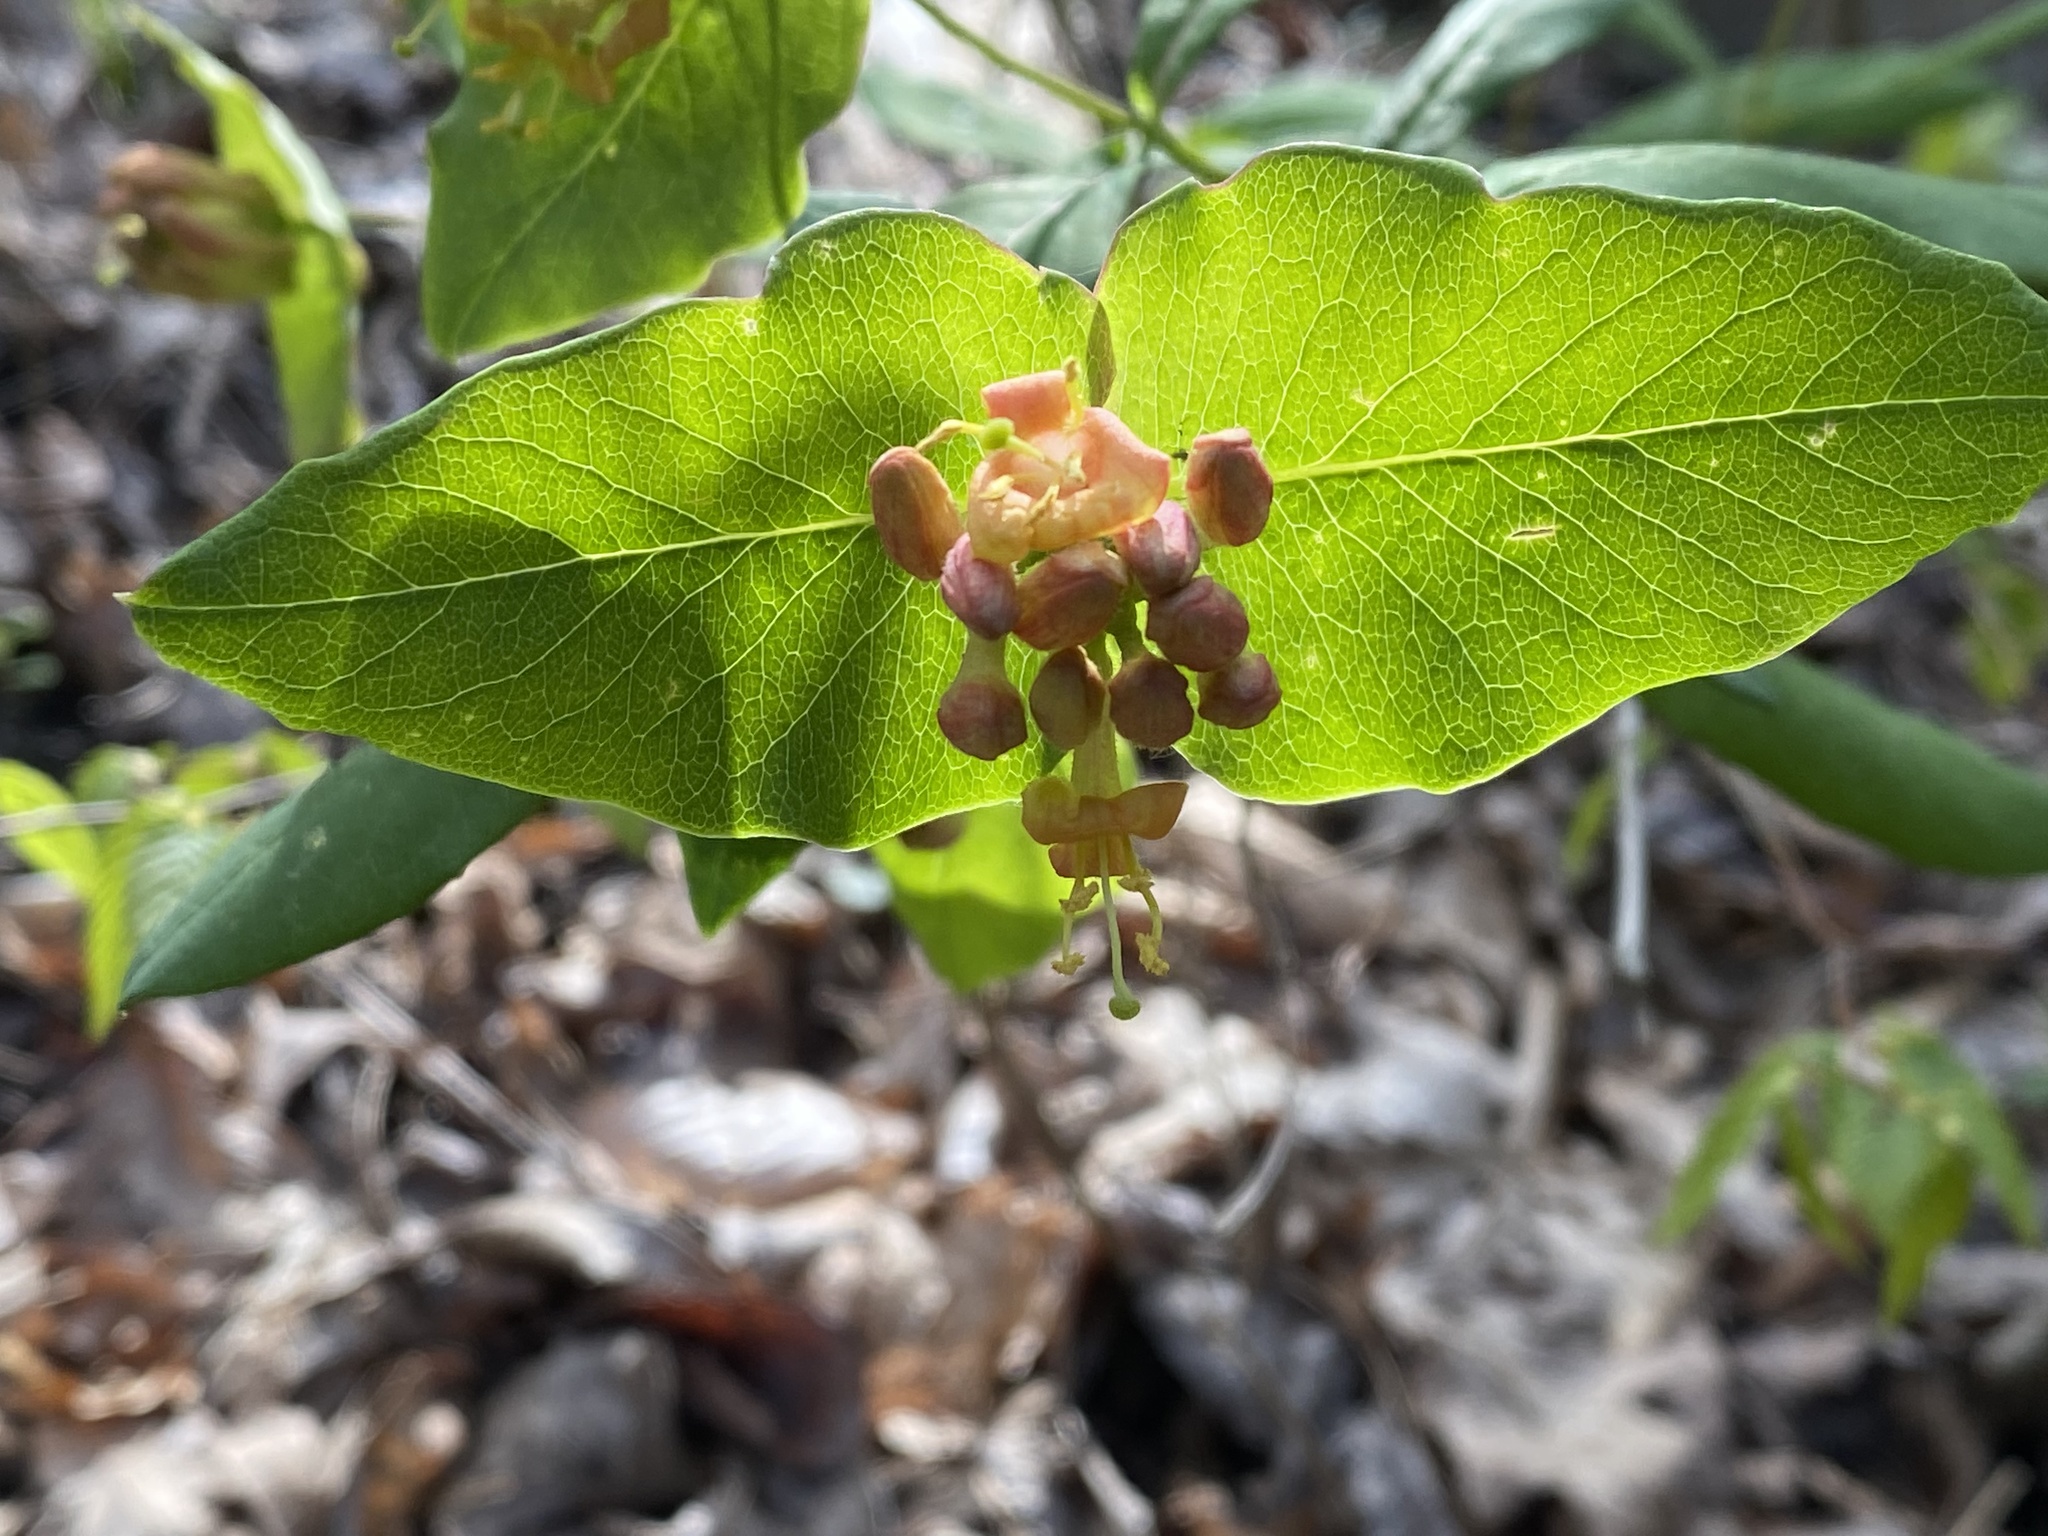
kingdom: Plantae
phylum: Tracheophyta
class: Magnoliopsida
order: Dipsacales
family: Caprifoliaceae
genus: Lonicera
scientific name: Lonicera dioica
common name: Limber honeysuckle
